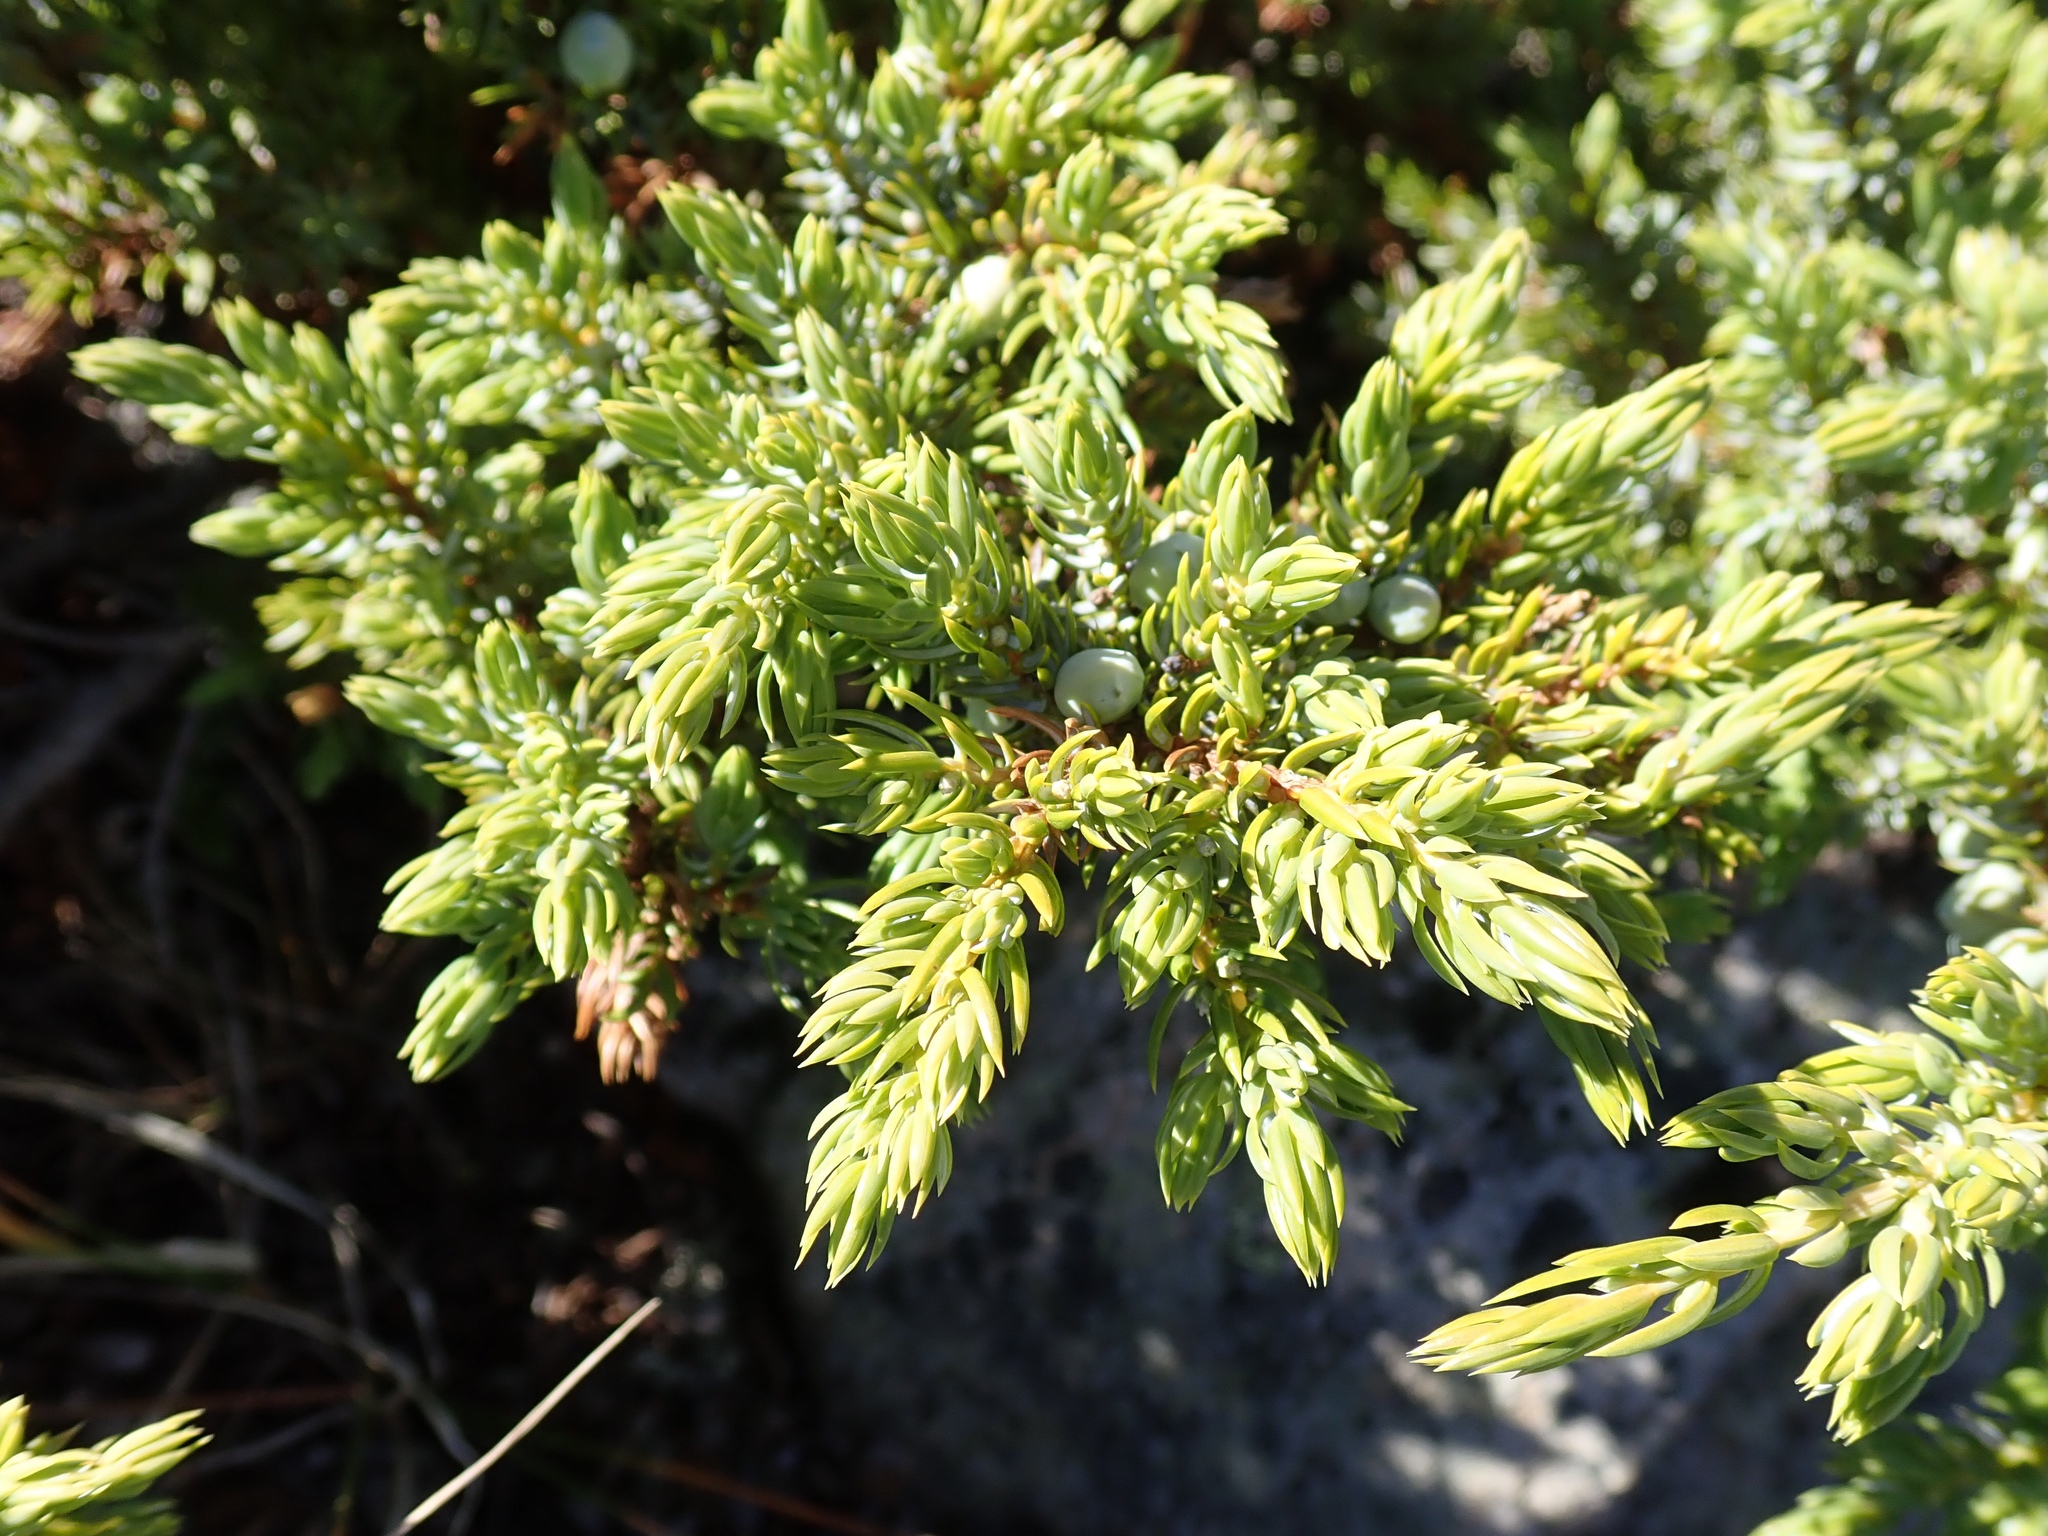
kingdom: Plantae
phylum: Tracheophyta
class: Pinopsida
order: Pinales
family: Cupressaceae
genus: Juniperus
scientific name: Juniperus communis
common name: Common juniper
